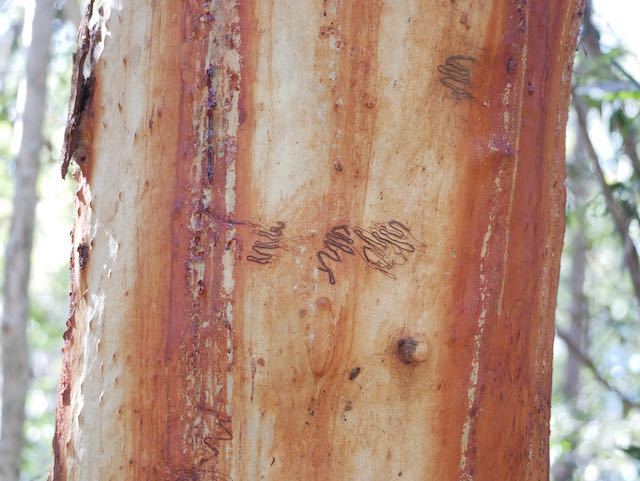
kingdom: Plantae
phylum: Tracheophyta
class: Magnoliopsida
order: Myrtales
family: Myrtaceae
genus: Eucalyptus
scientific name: Eucalyptus racemosa
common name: Scribbly gum
